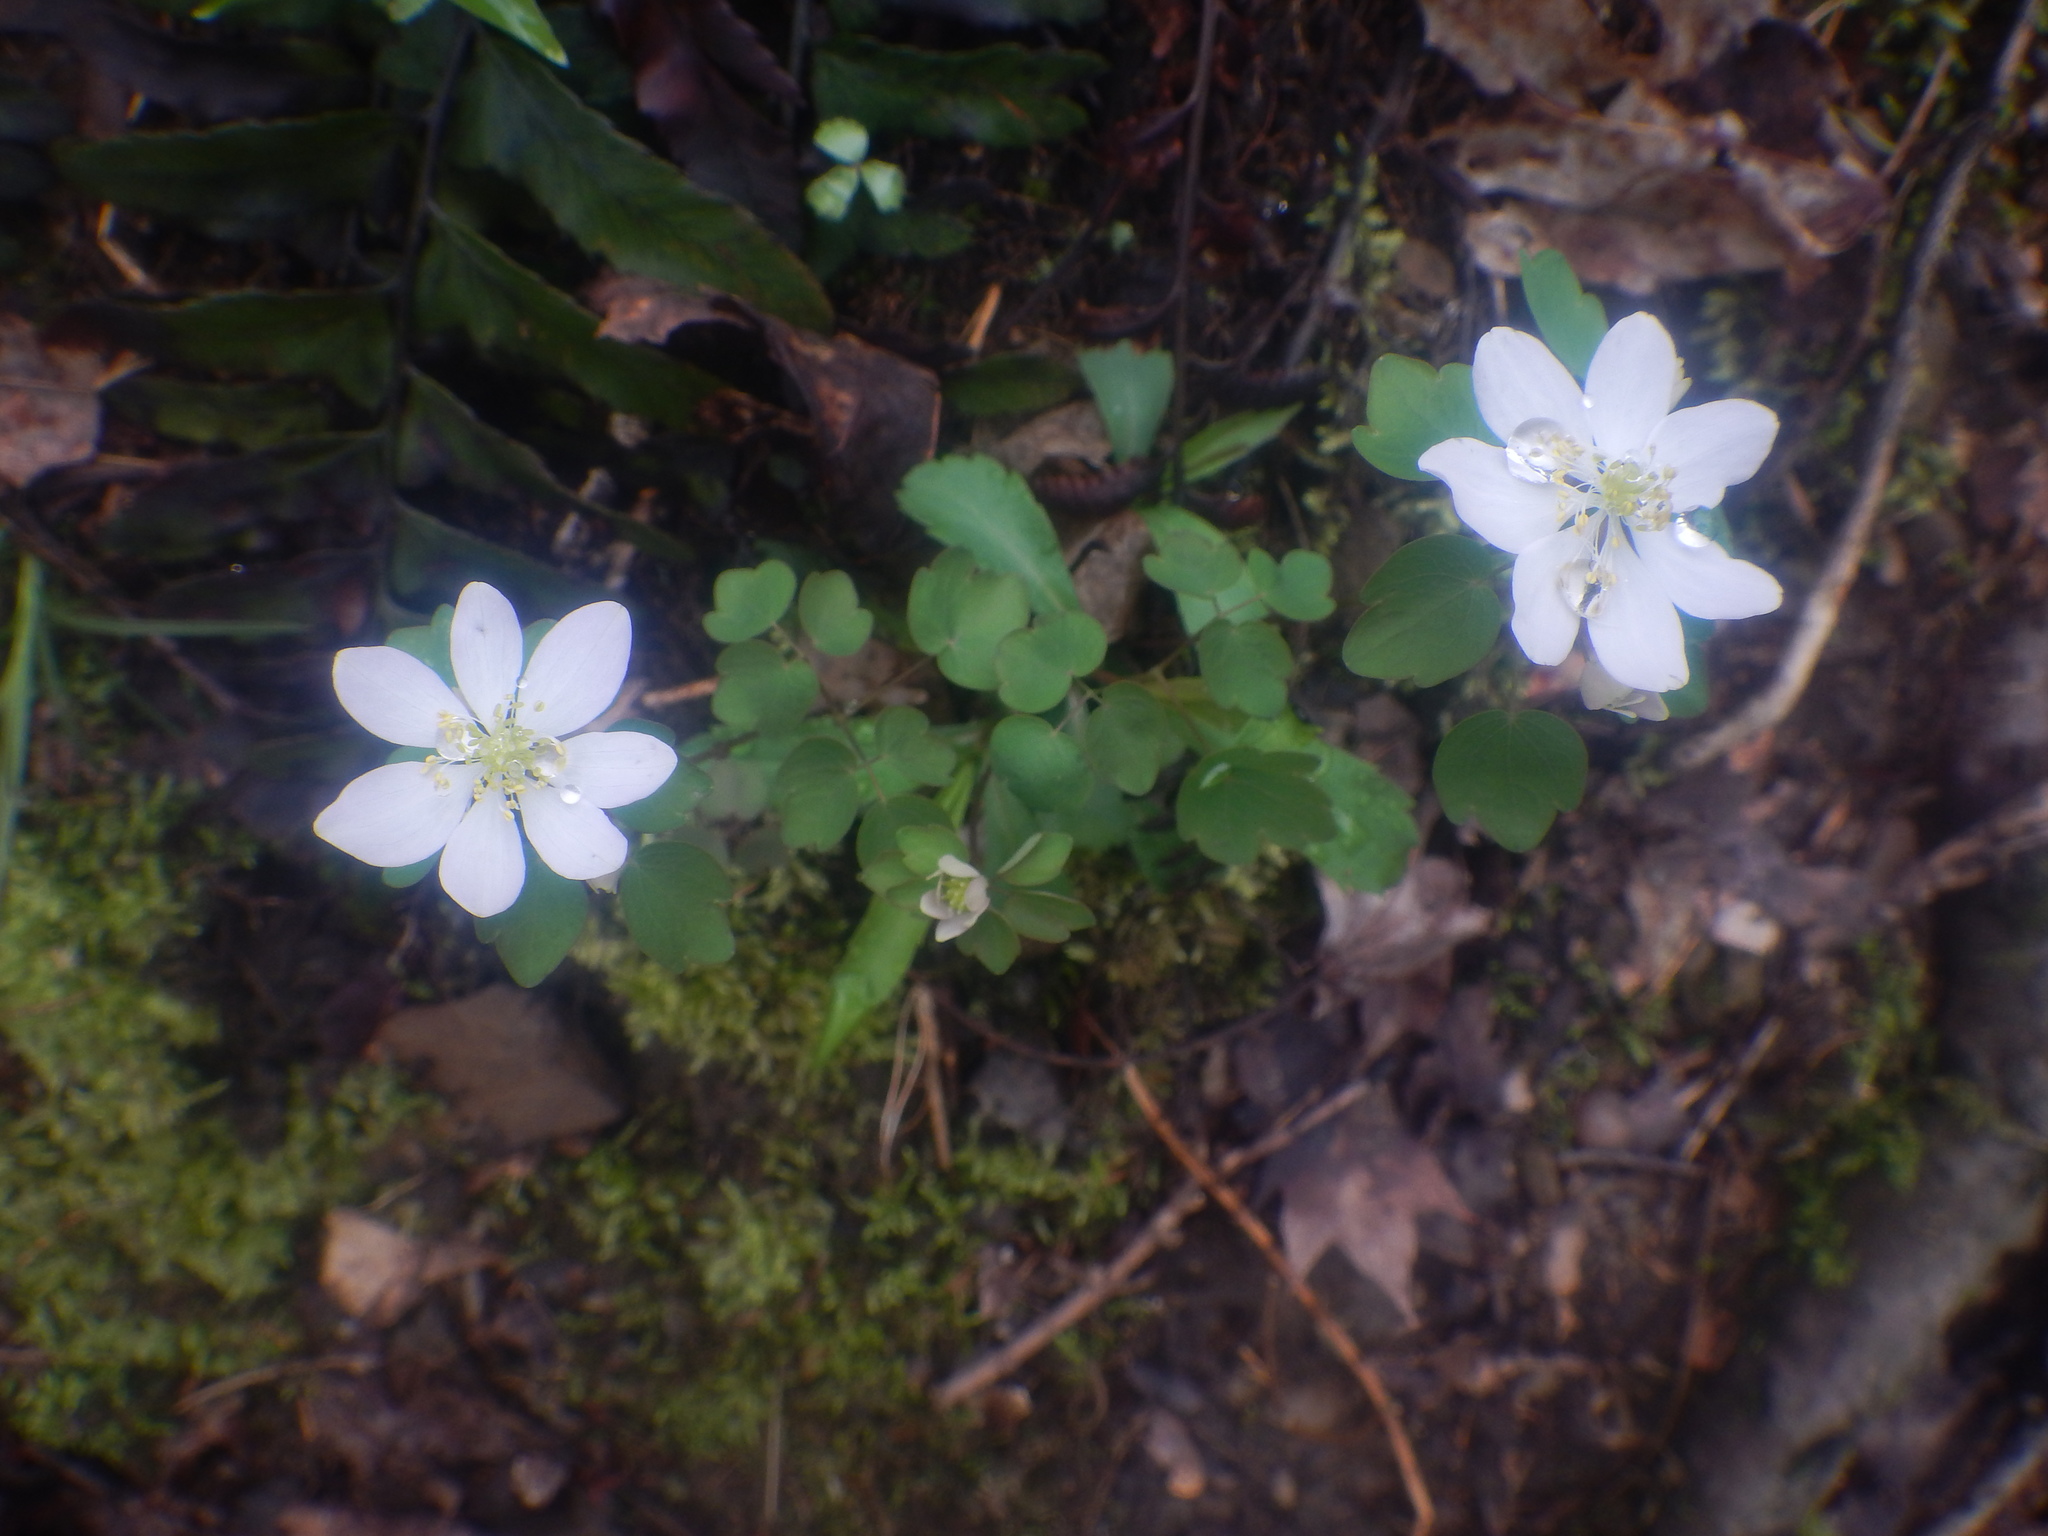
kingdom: Plantae
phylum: Tracheophyta
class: Magnoliopsida
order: Ranunculales
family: Ranunculaceae
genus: Thalictrum
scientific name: Thalictrum thalictroides
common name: Rue-anemone
